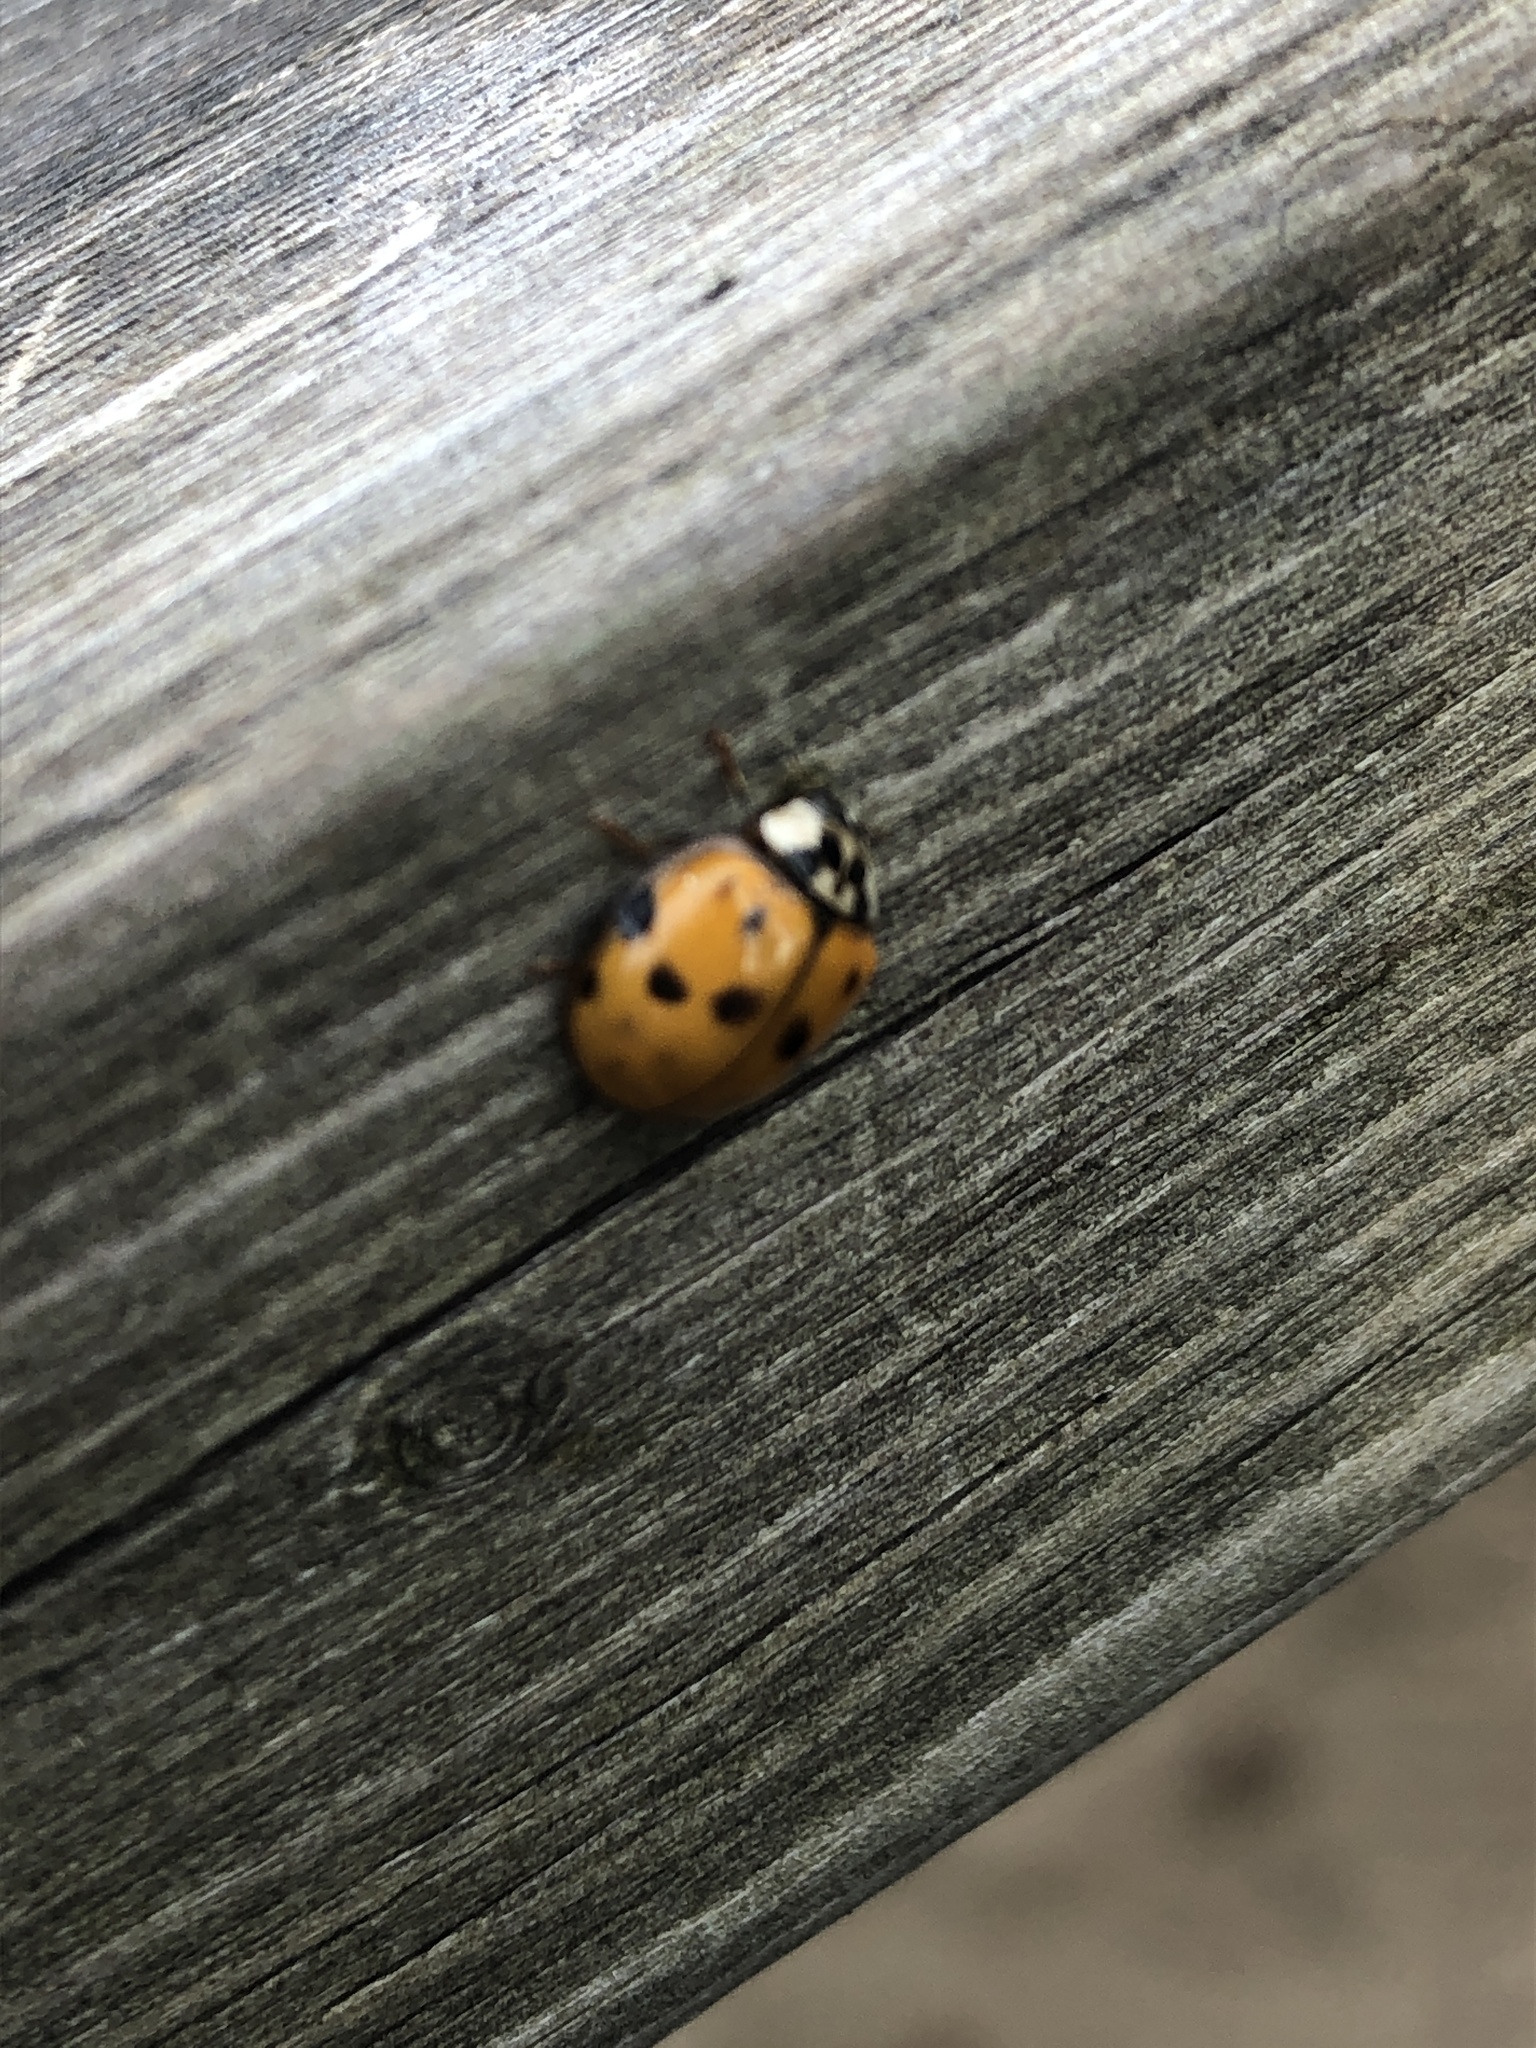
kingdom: Animalia
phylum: Arthropoda
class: Insecta
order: Coleoptera
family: Coccinellidae
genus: Harmonia
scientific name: Harmonia axyridis
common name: Harlequin ladybird
